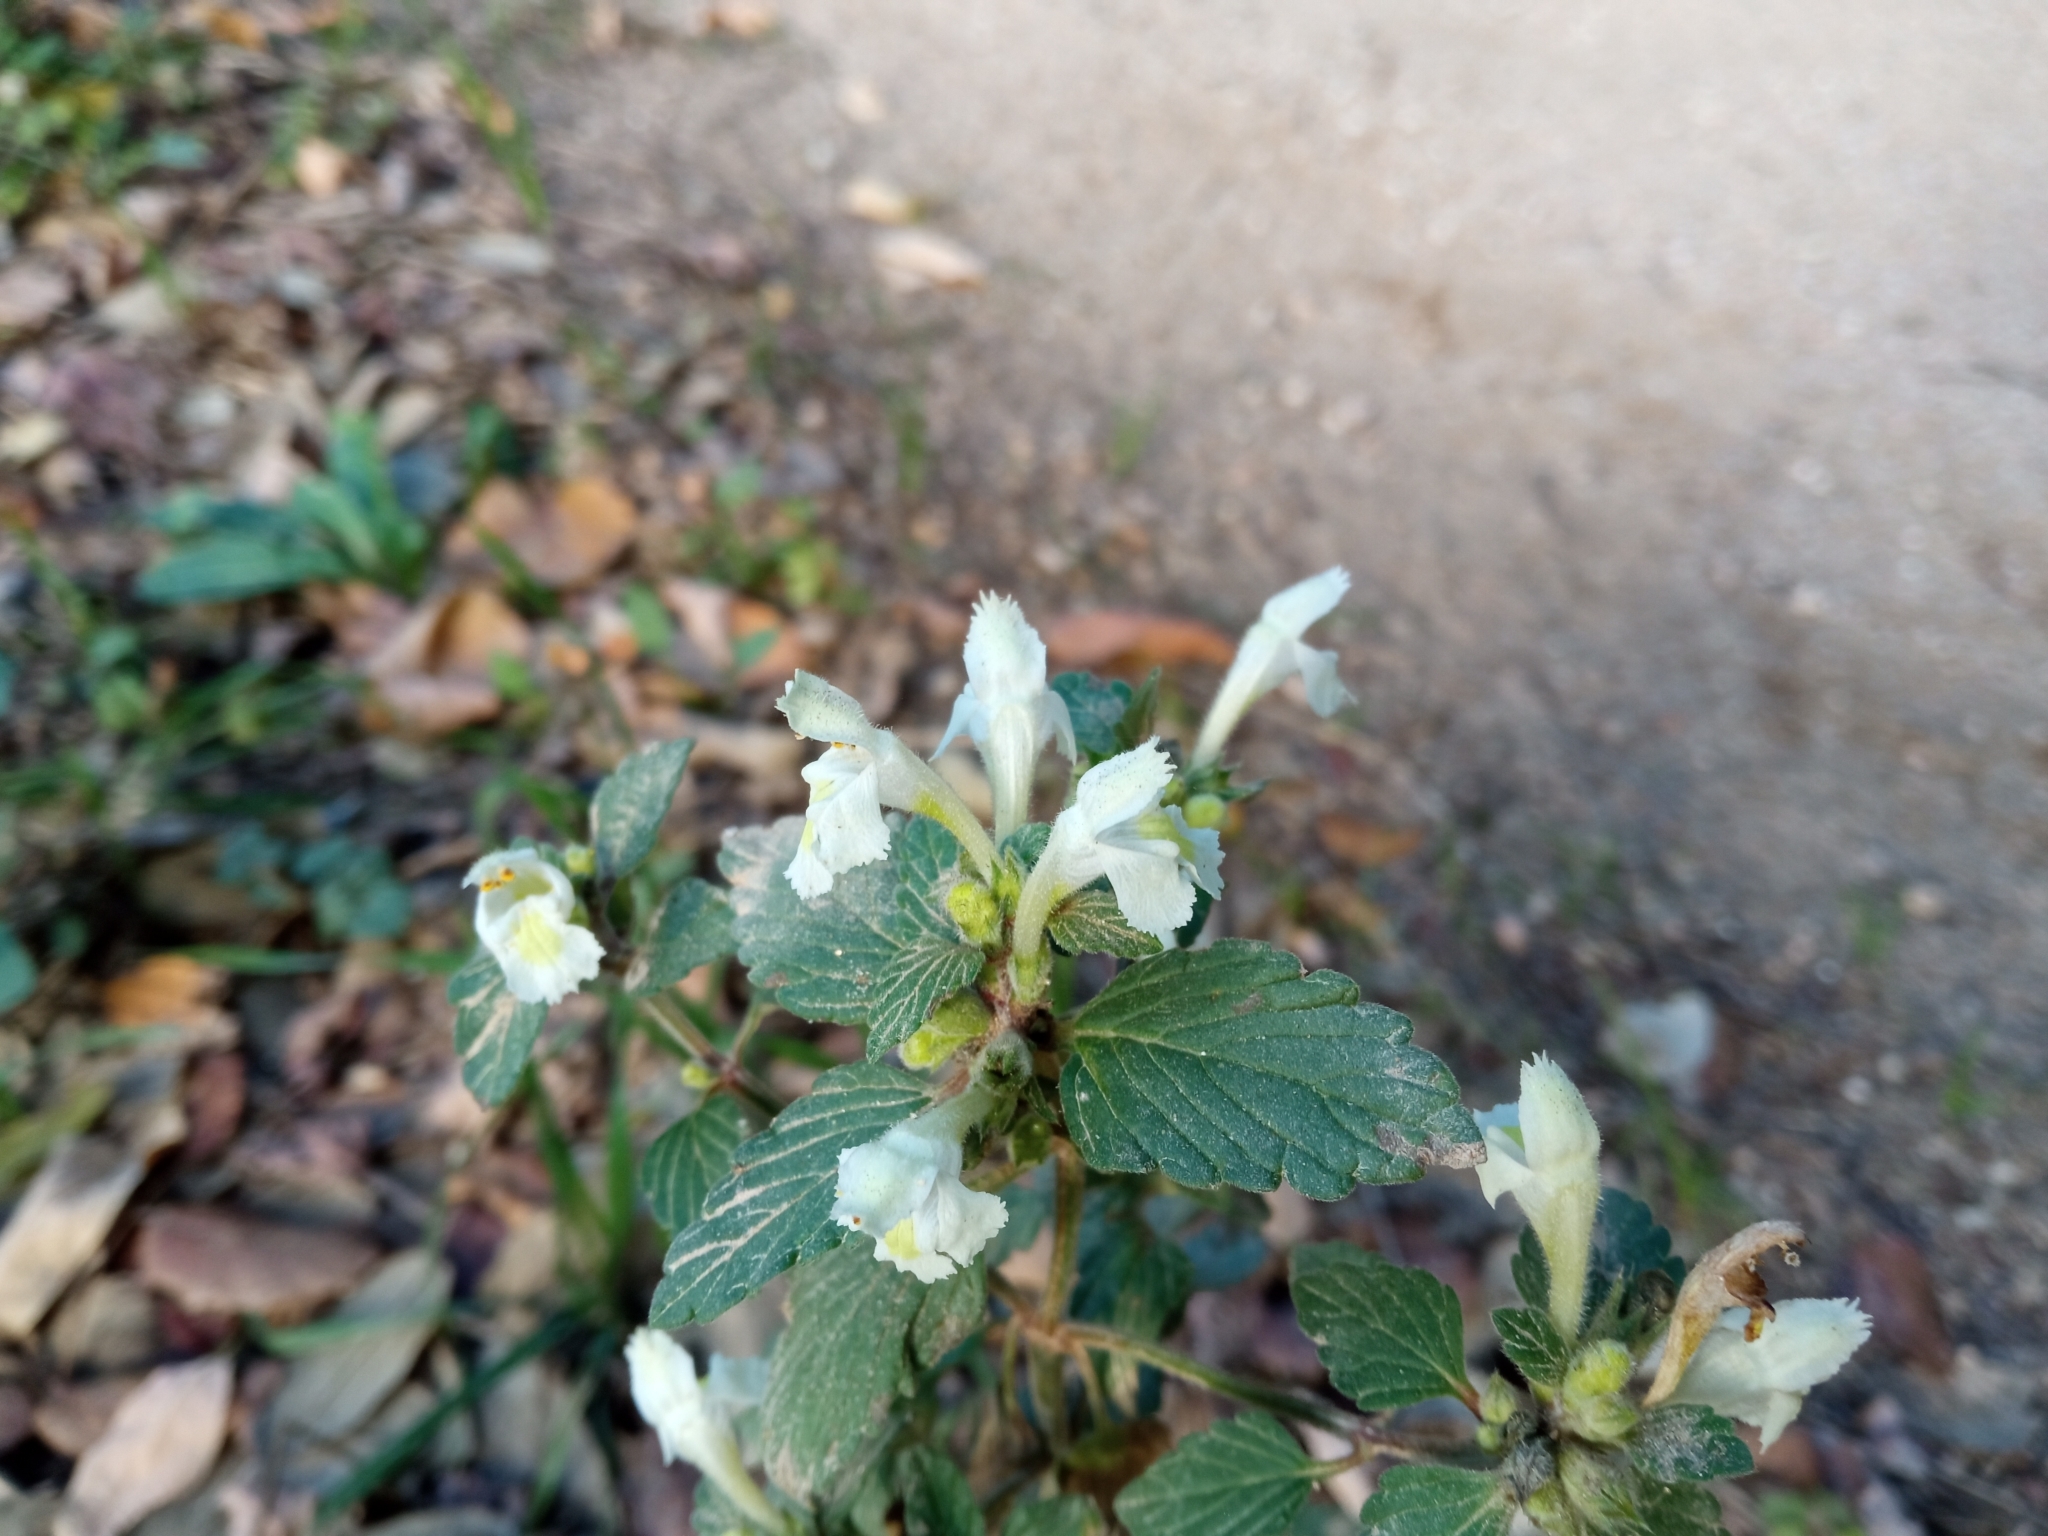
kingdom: Plantae
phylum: Tracheophyta
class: Magnoliopsida
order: Lamiales
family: Lamiaceae
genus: Galeopsis
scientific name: Galeopsis segetum
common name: Downy hemp-nettle
